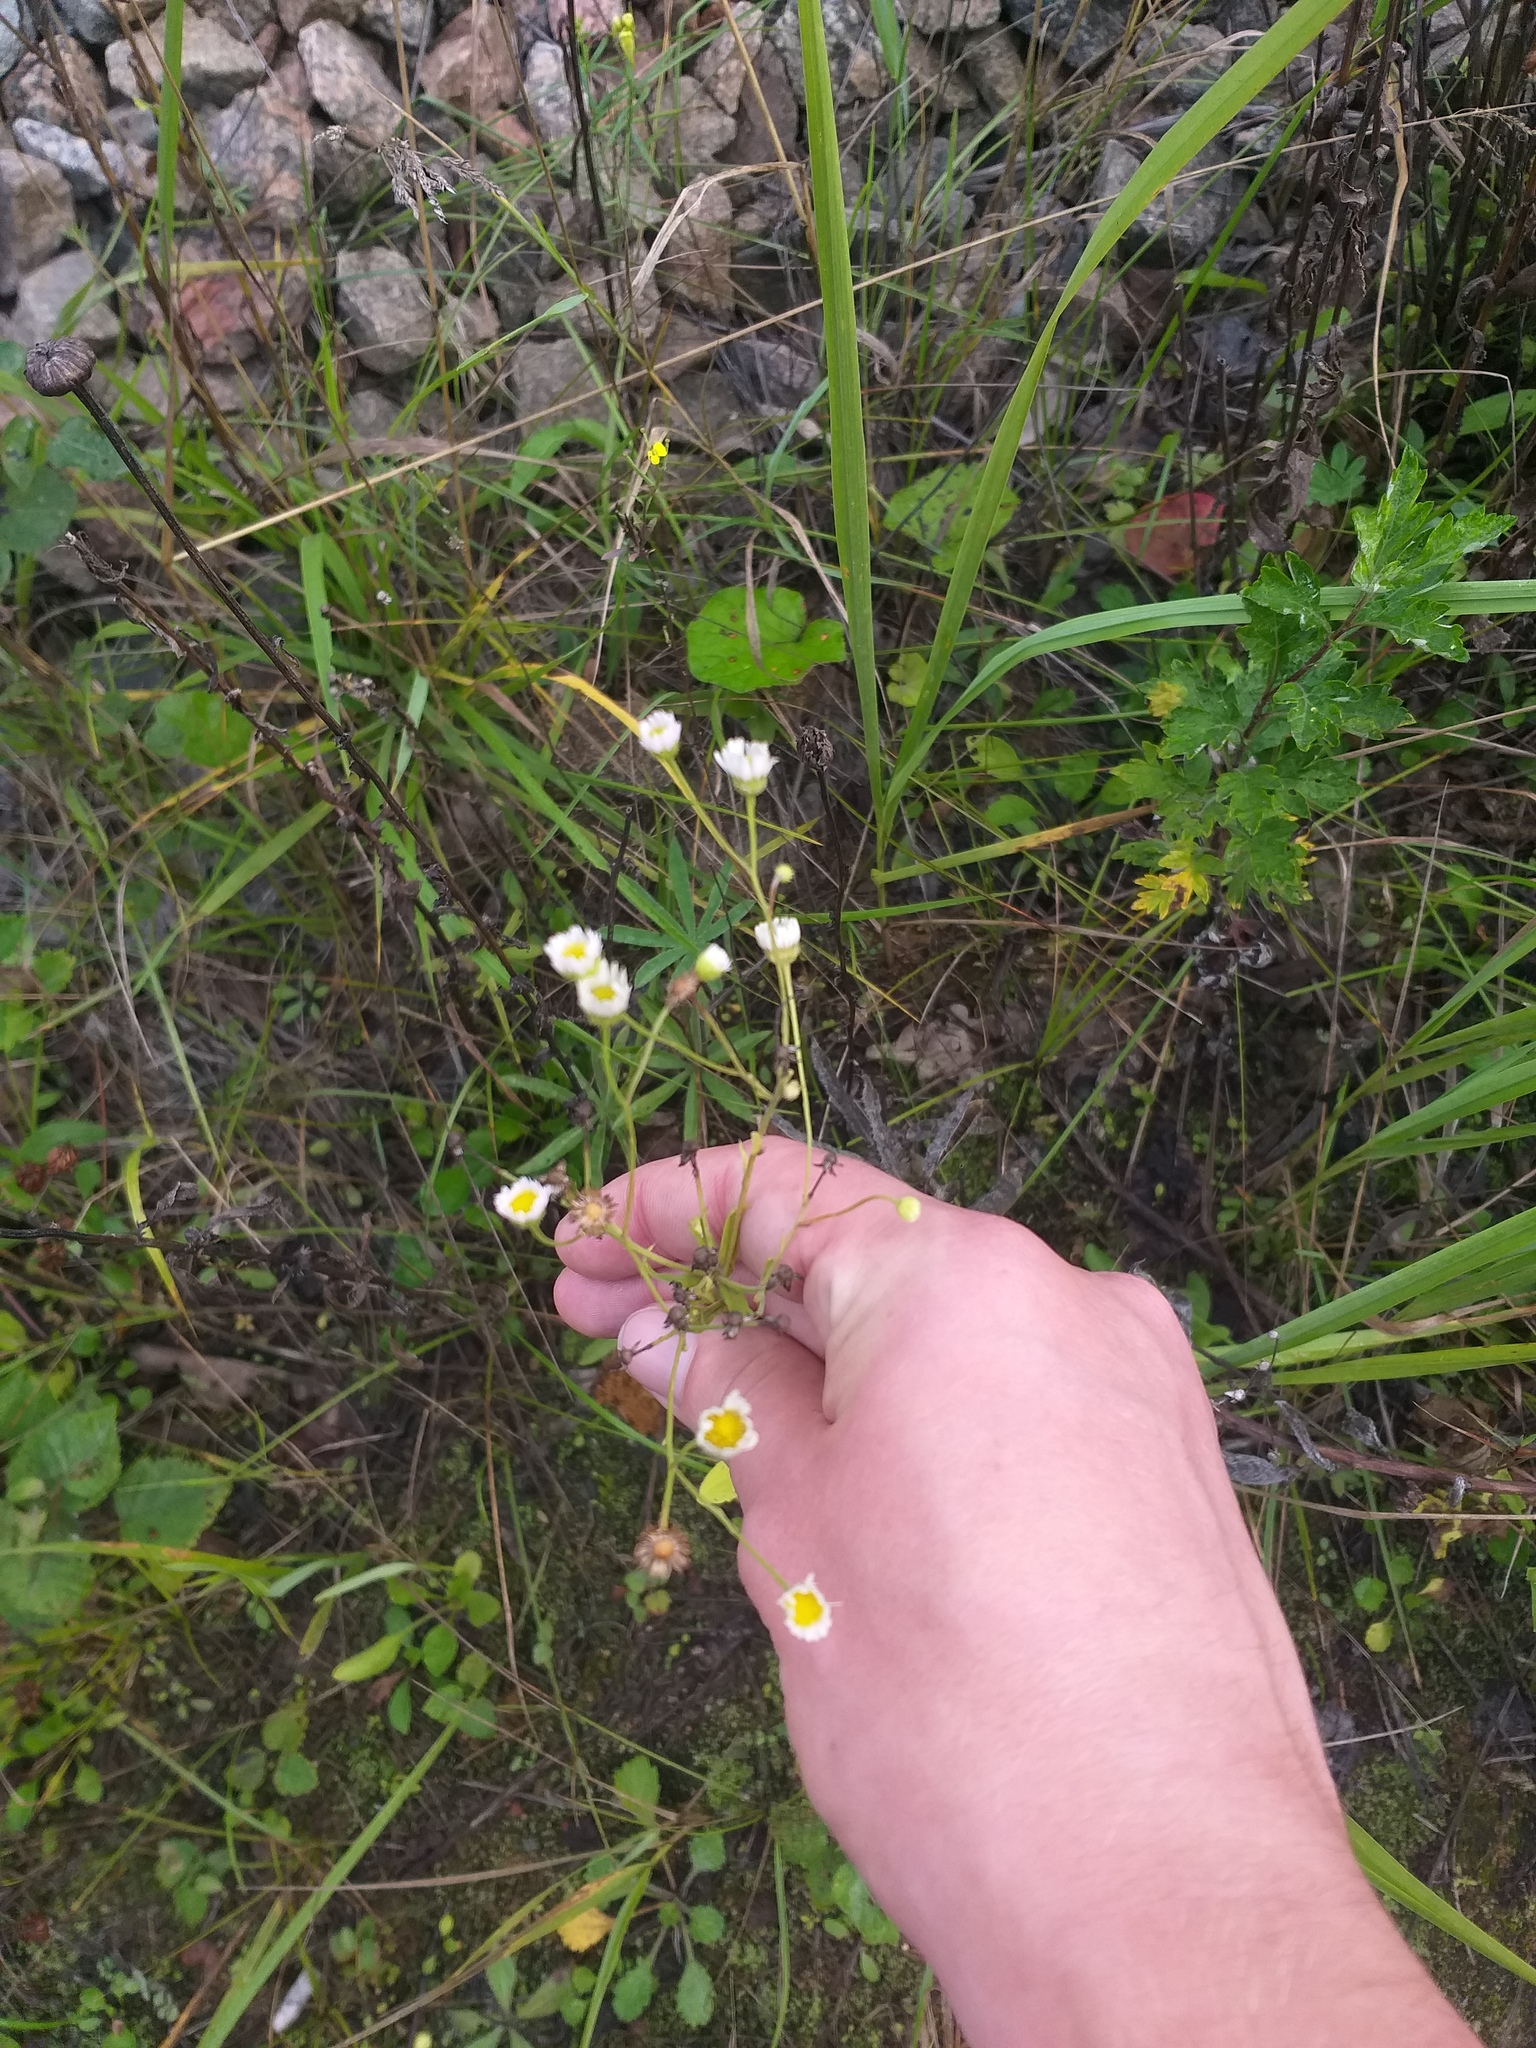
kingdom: Plantae
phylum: Tracheophyta
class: Magnoliopsida
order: Asterales
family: Asteraceae
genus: Erigeron
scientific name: Erigeron annuus
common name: Tall fleabane
